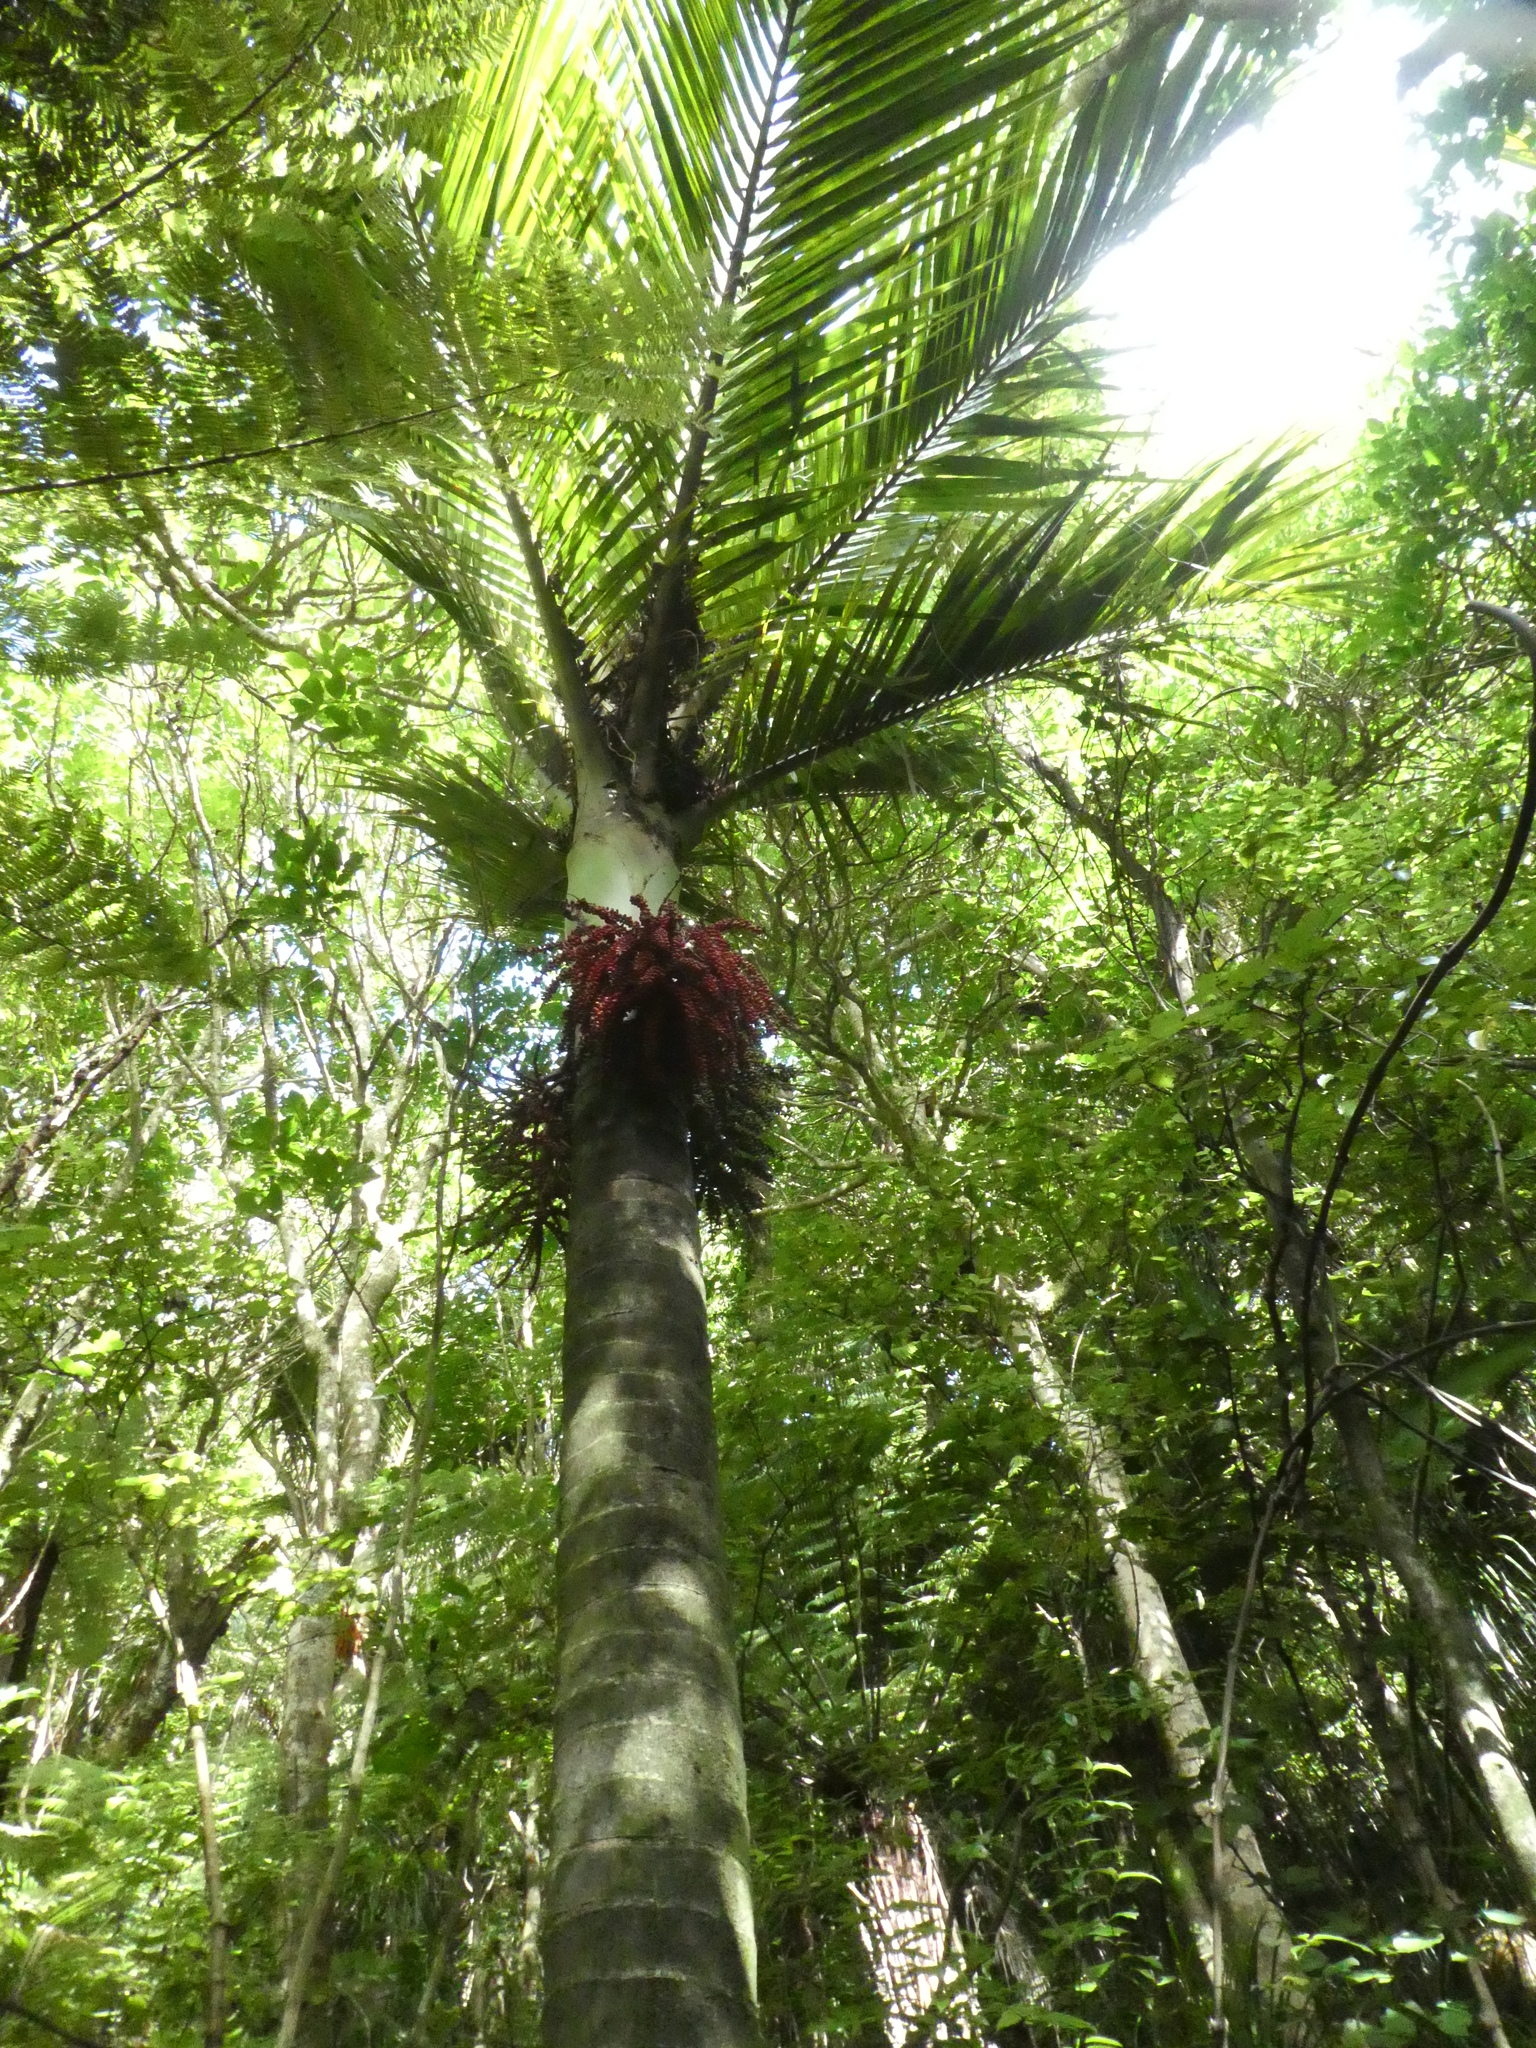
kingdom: Plantae
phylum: Tracheophyta
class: Liliopsida
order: Arecales
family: Arecaceae
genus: Rhopalostylis
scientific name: Rhopalostylis sapida
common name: Feather-duster palm
